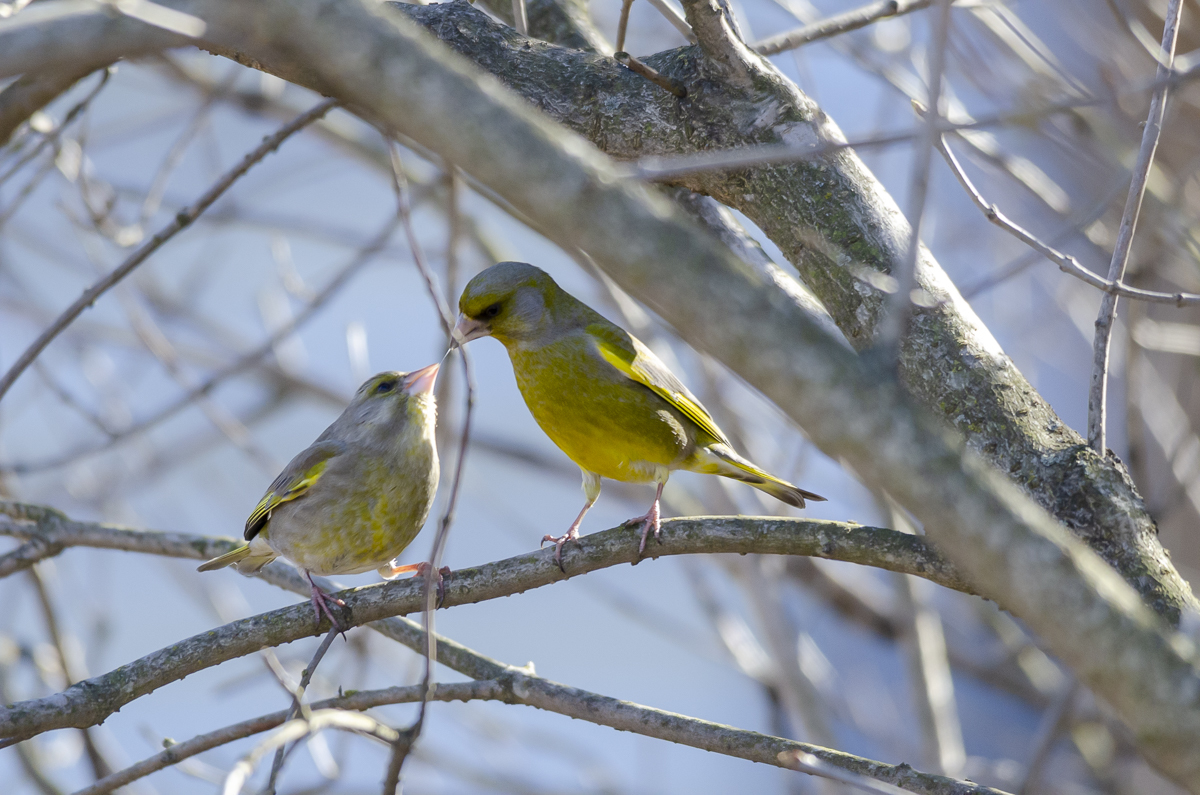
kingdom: Plantae
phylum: Tracheophyta
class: Liliopsida
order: Poales
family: Poaceae
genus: Chloris
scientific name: Chloris chloris
